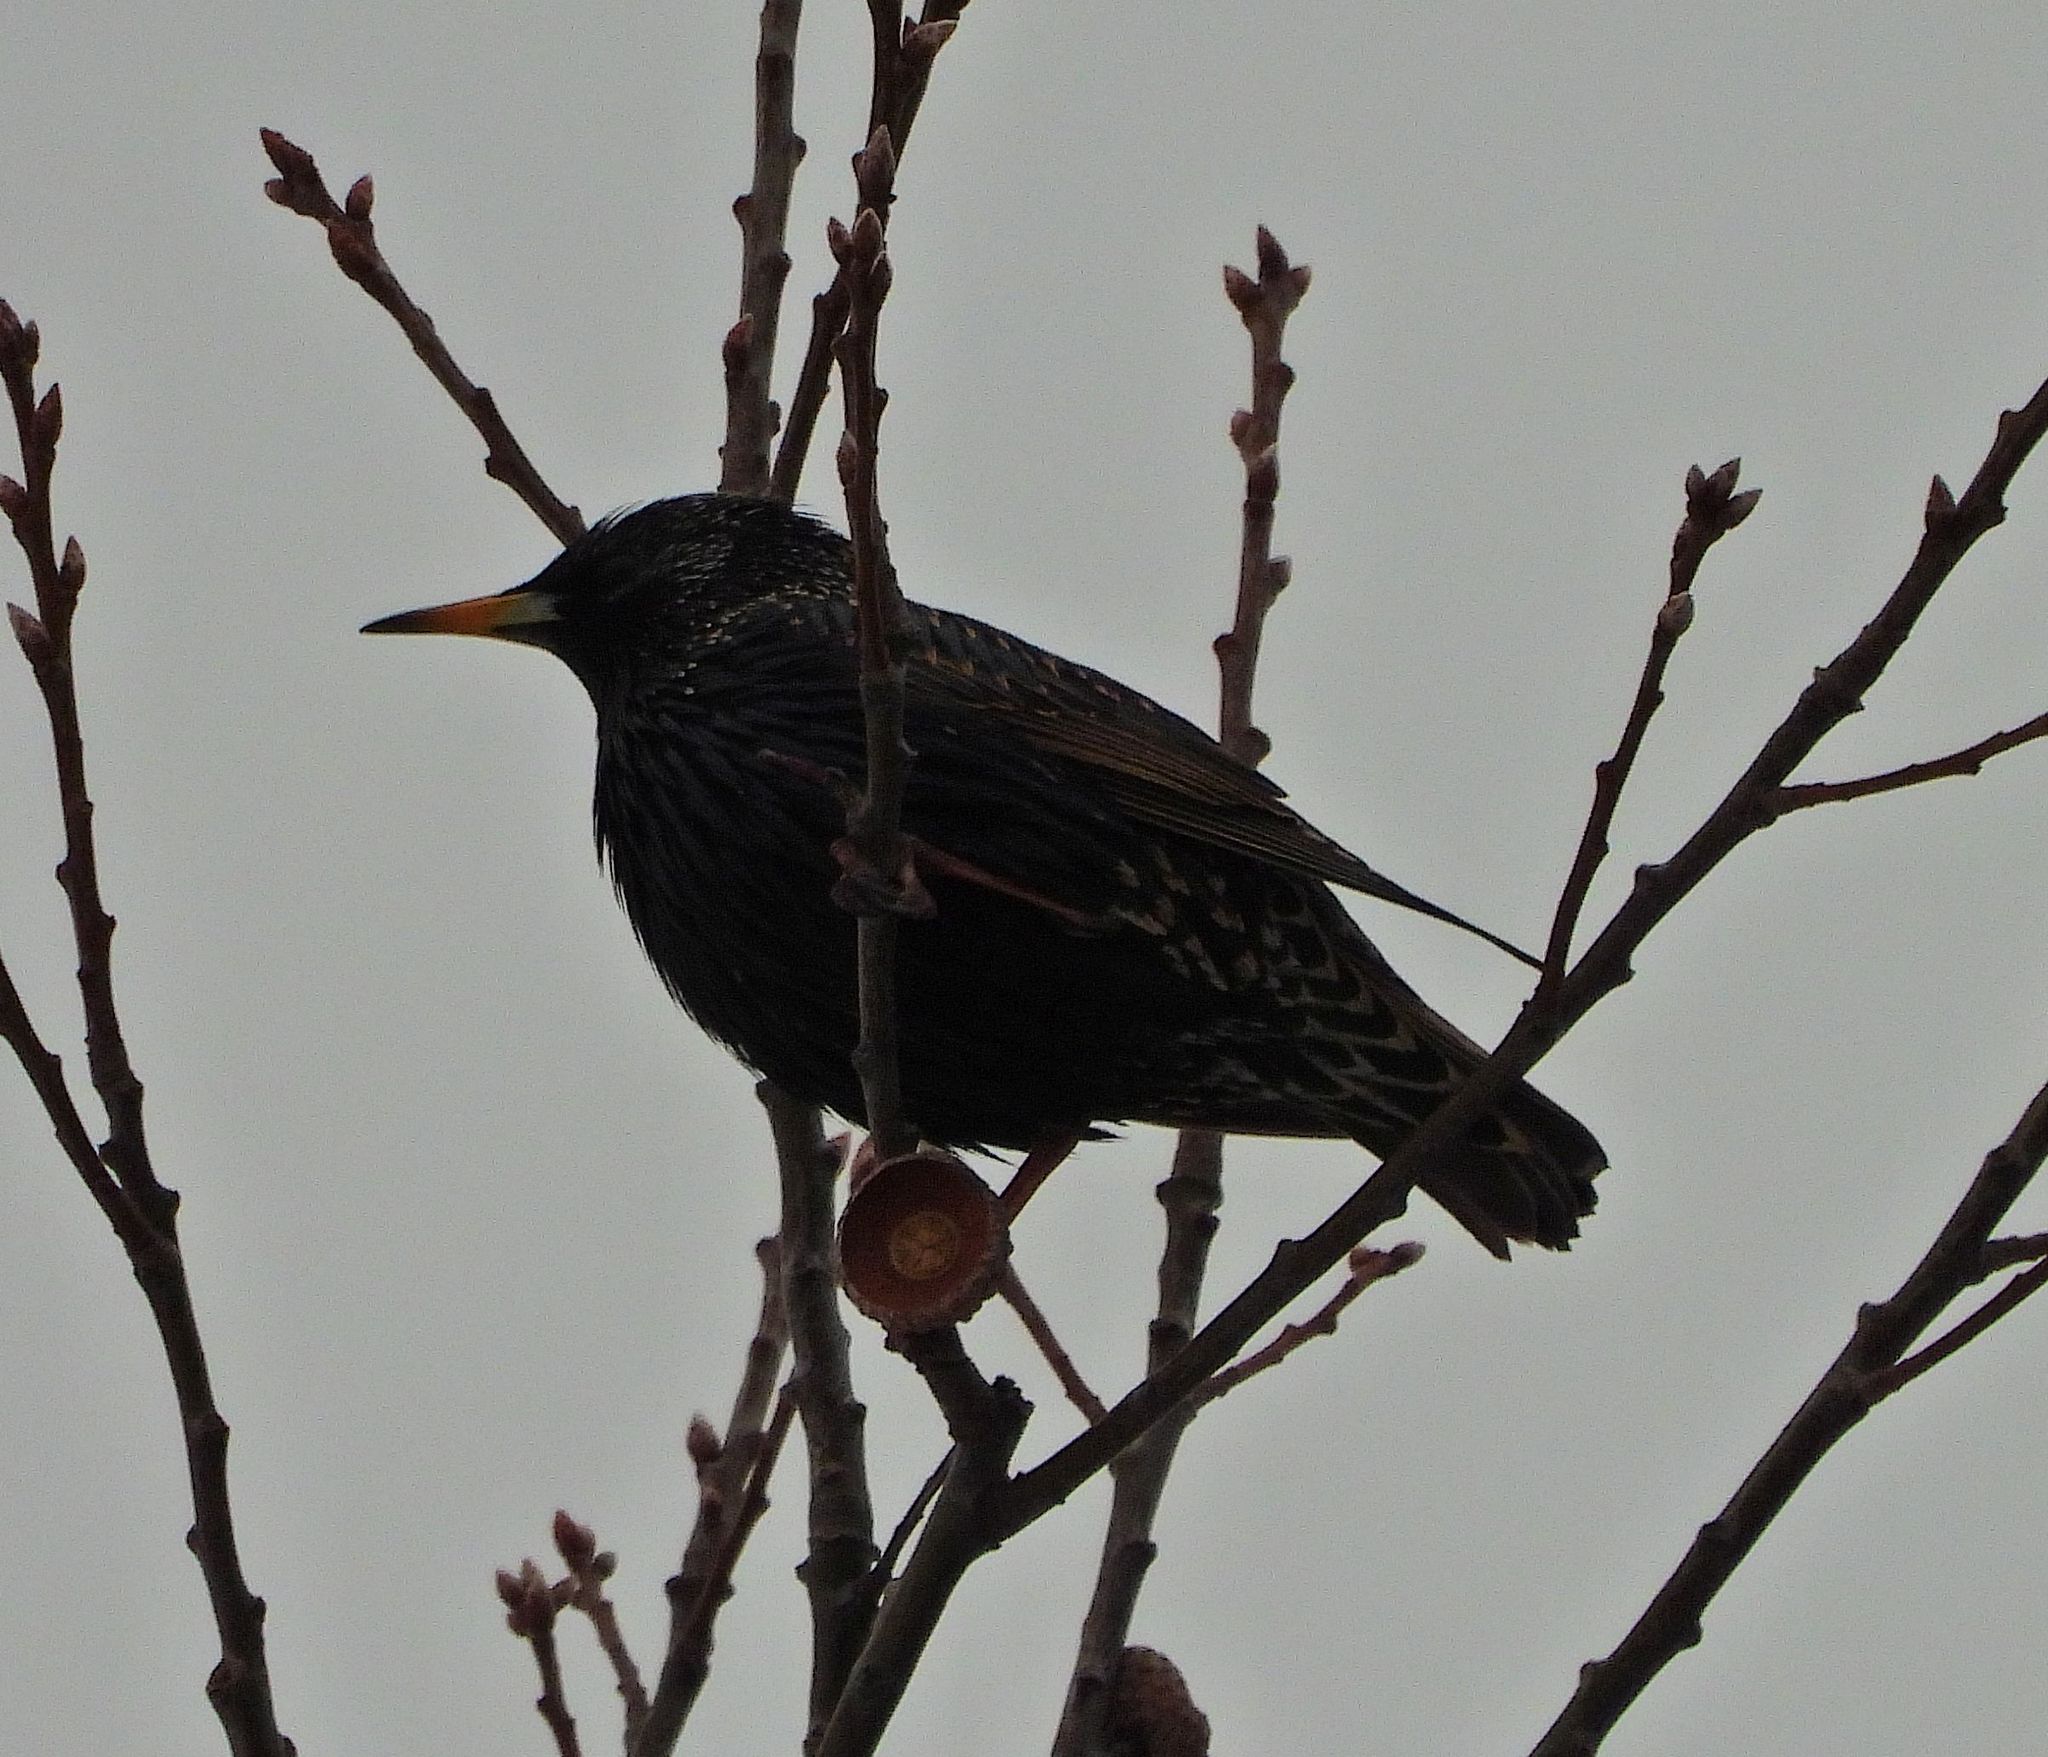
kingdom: Animalia
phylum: Chordata
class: Aves
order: Passeriformes
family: Sturnidae
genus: Sturnus
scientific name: Sturnus vulgaris
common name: Common starling
